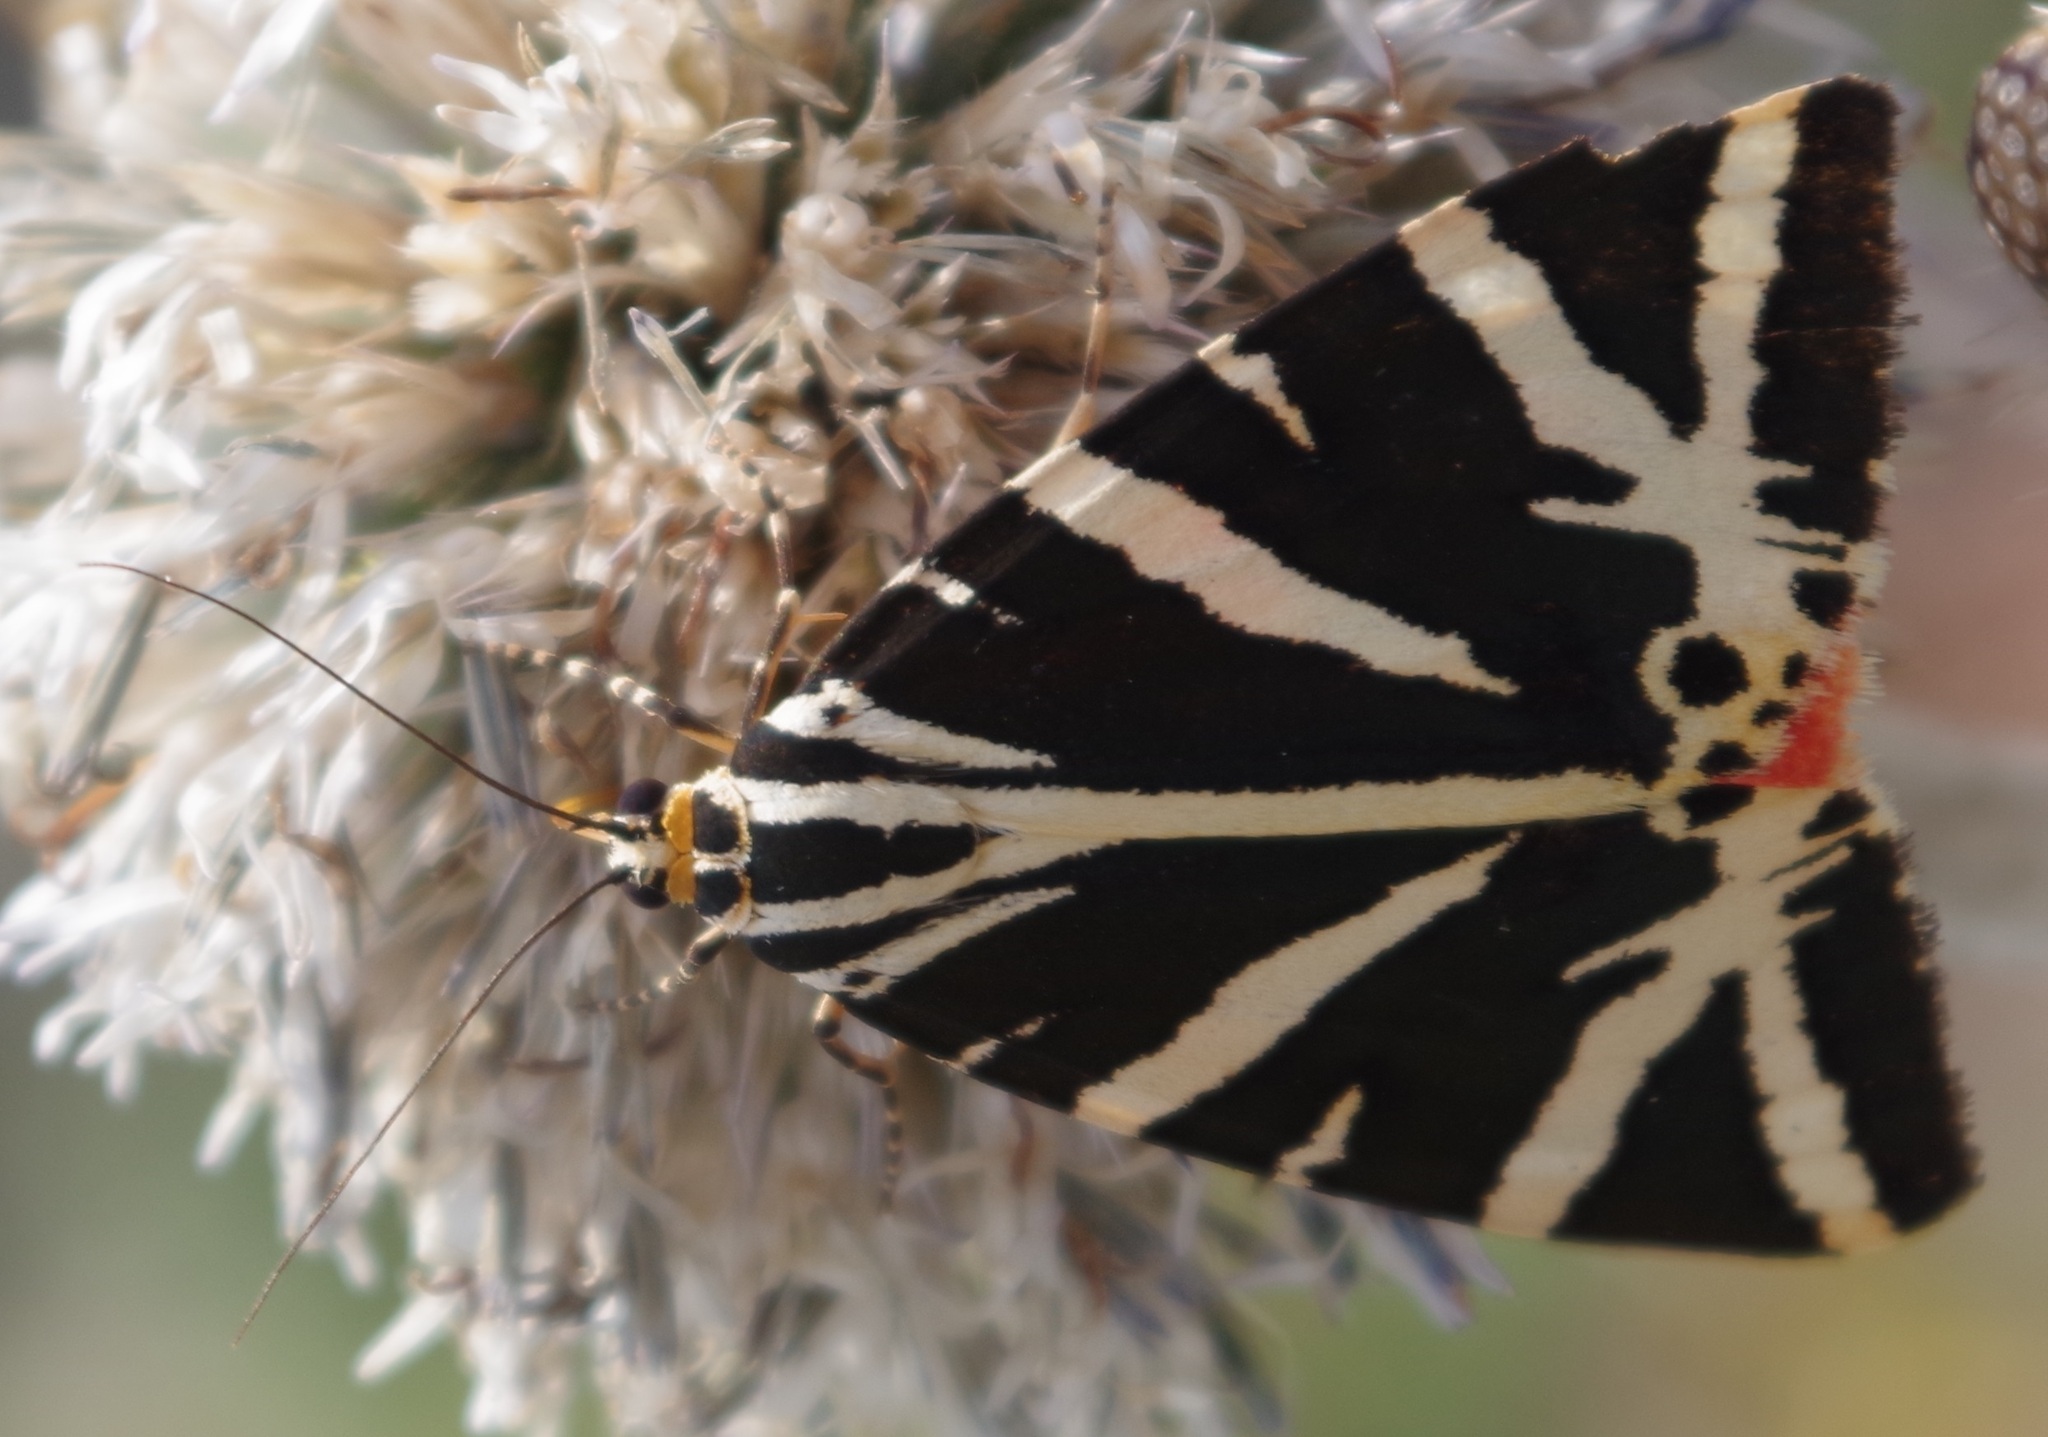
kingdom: Animalia
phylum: Arthropoda
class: Insecta
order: Lepidoptera
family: Erebidae
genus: Euplagia
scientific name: Euplagia quadripunctaria
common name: Jersey tiger
